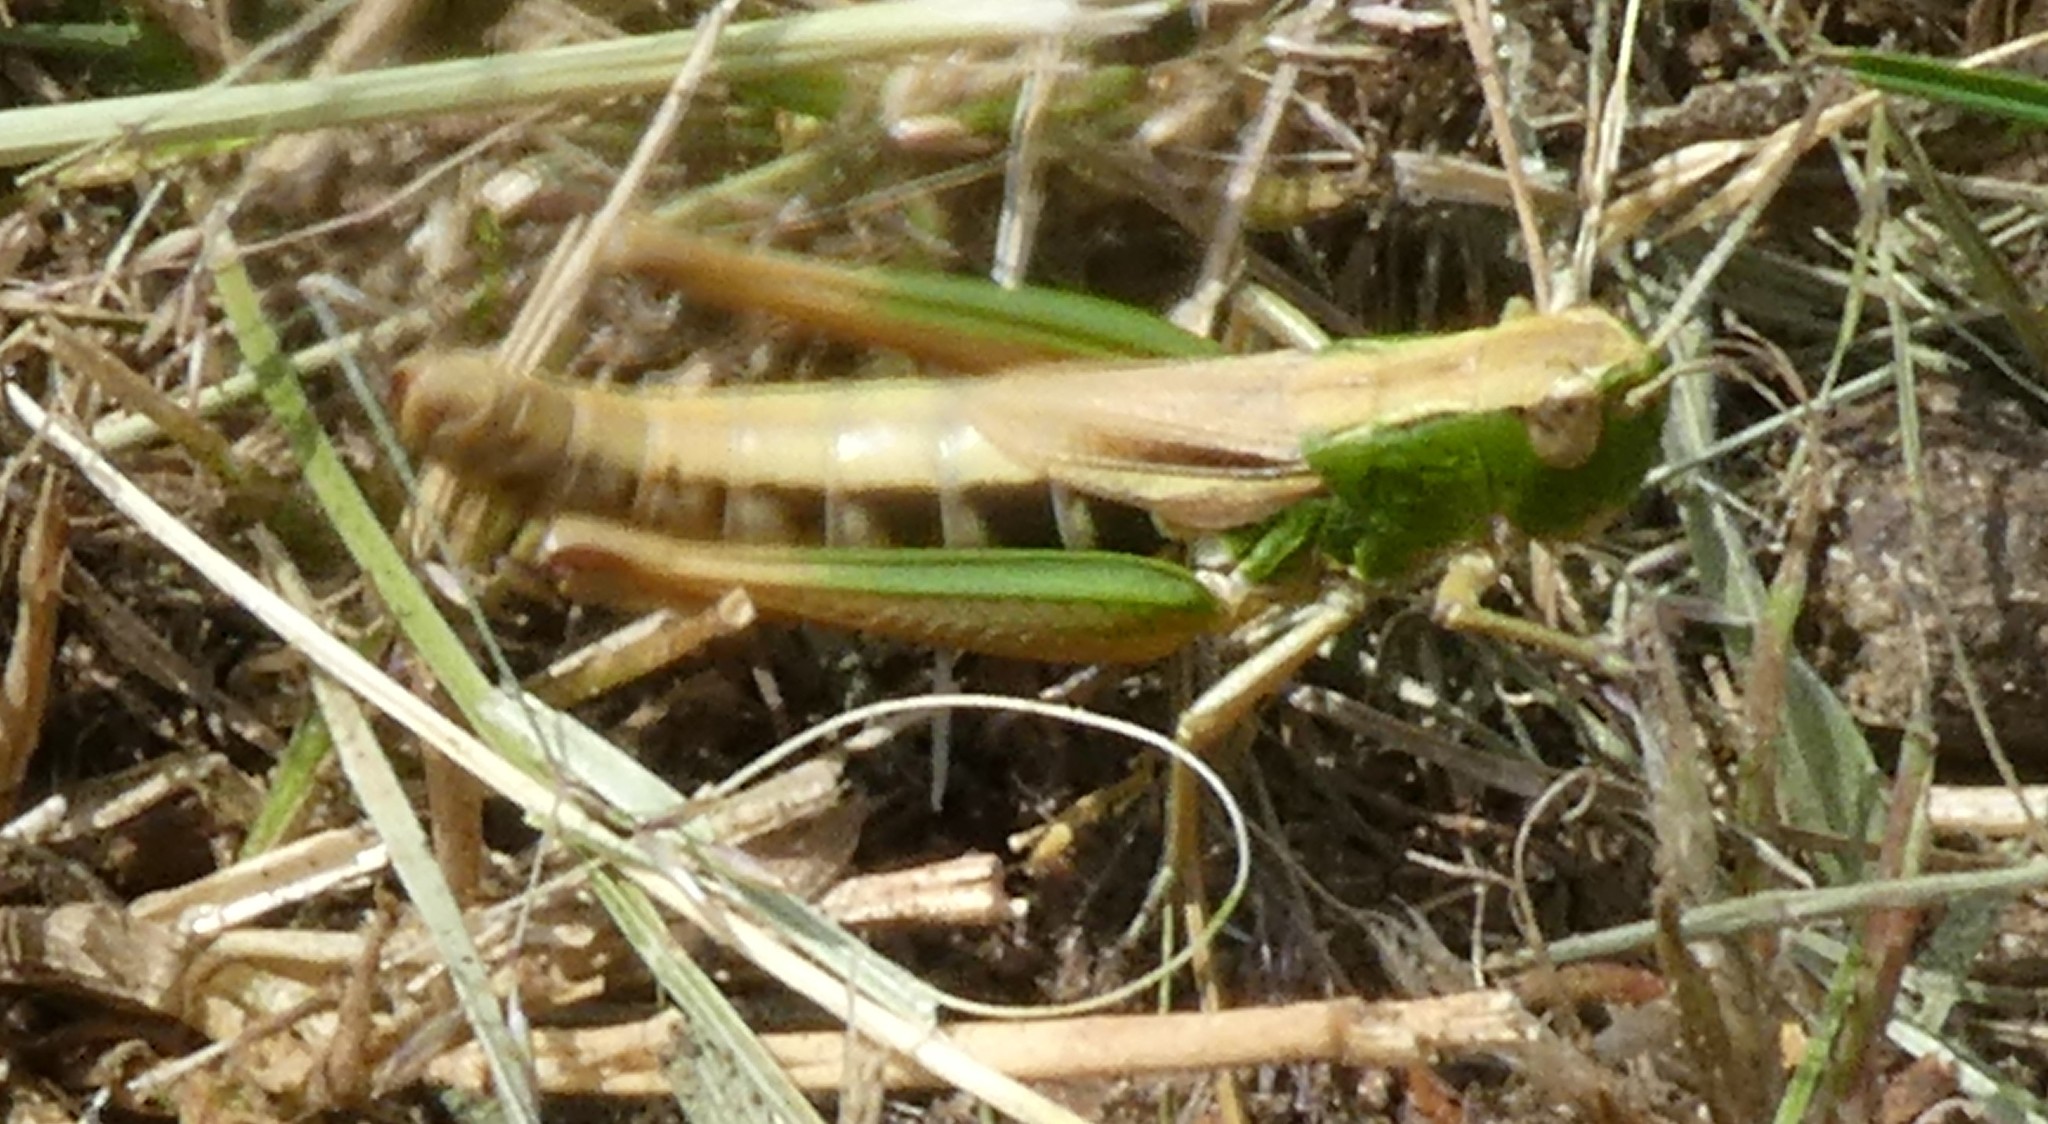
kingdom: Animalia
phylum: Arthropoda
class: Insecta
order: Orthoptera
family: Acrididae
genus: Pseudochorthippus
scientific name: Pseudochorthippus parallelus
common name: Meadow grasshopper
